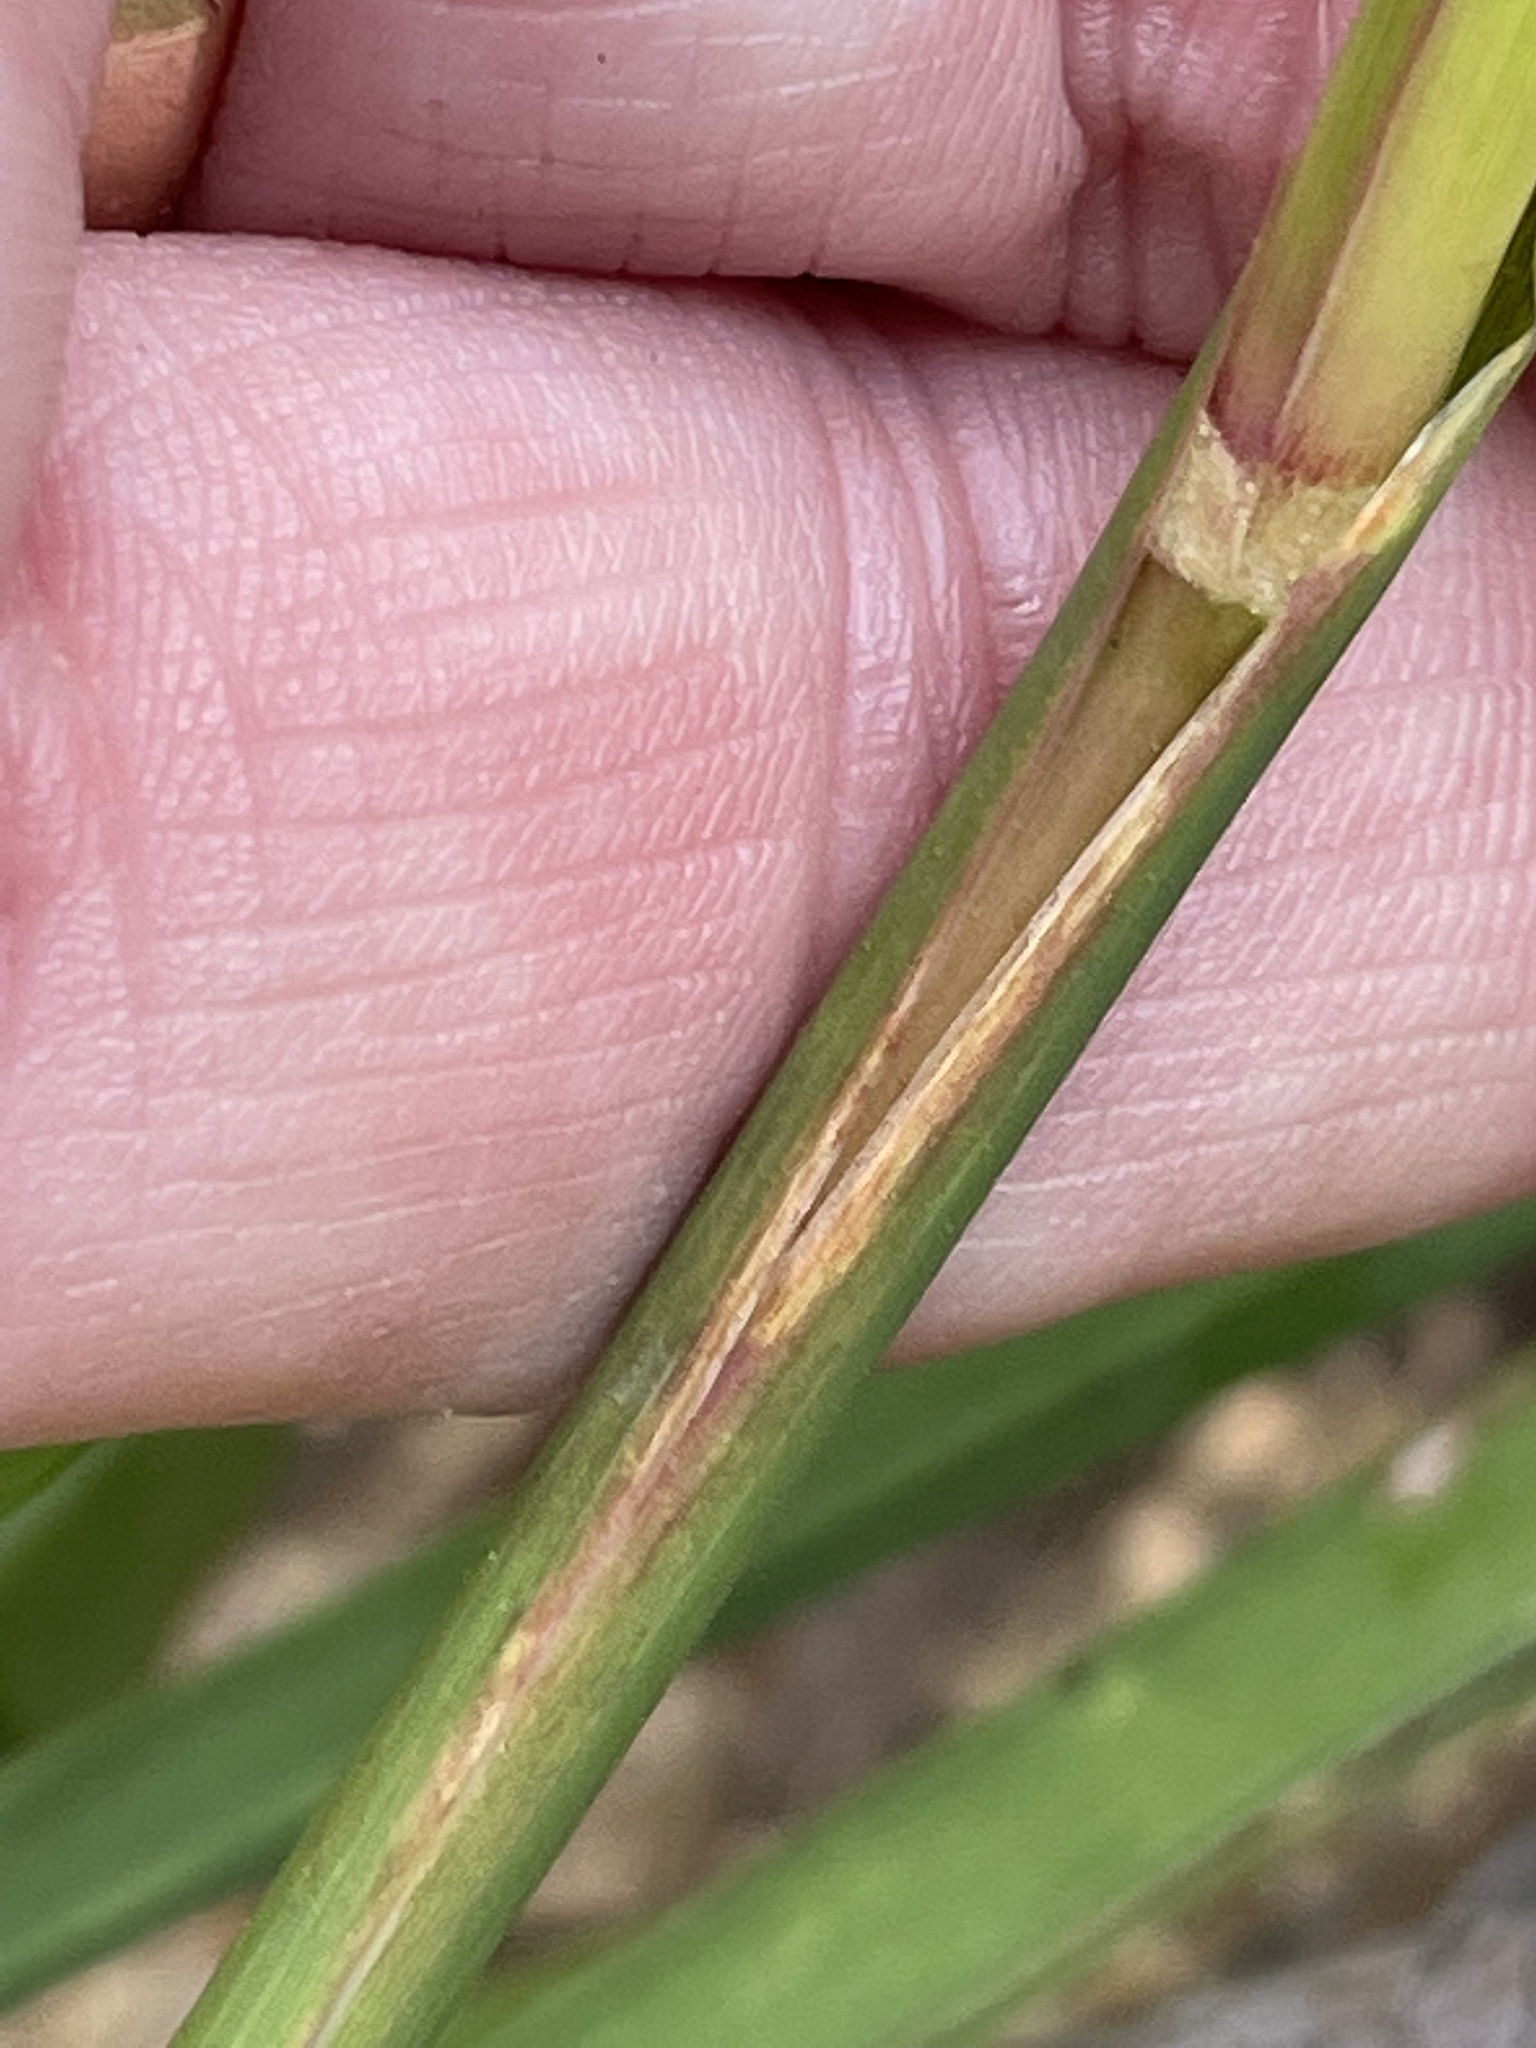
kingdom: Plantae
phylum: Tracheophyta
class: Liliopsida
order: Poales
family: Poaceae
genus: Sorghastrum
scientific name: Sorghastrum nutans
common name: Indian grass
